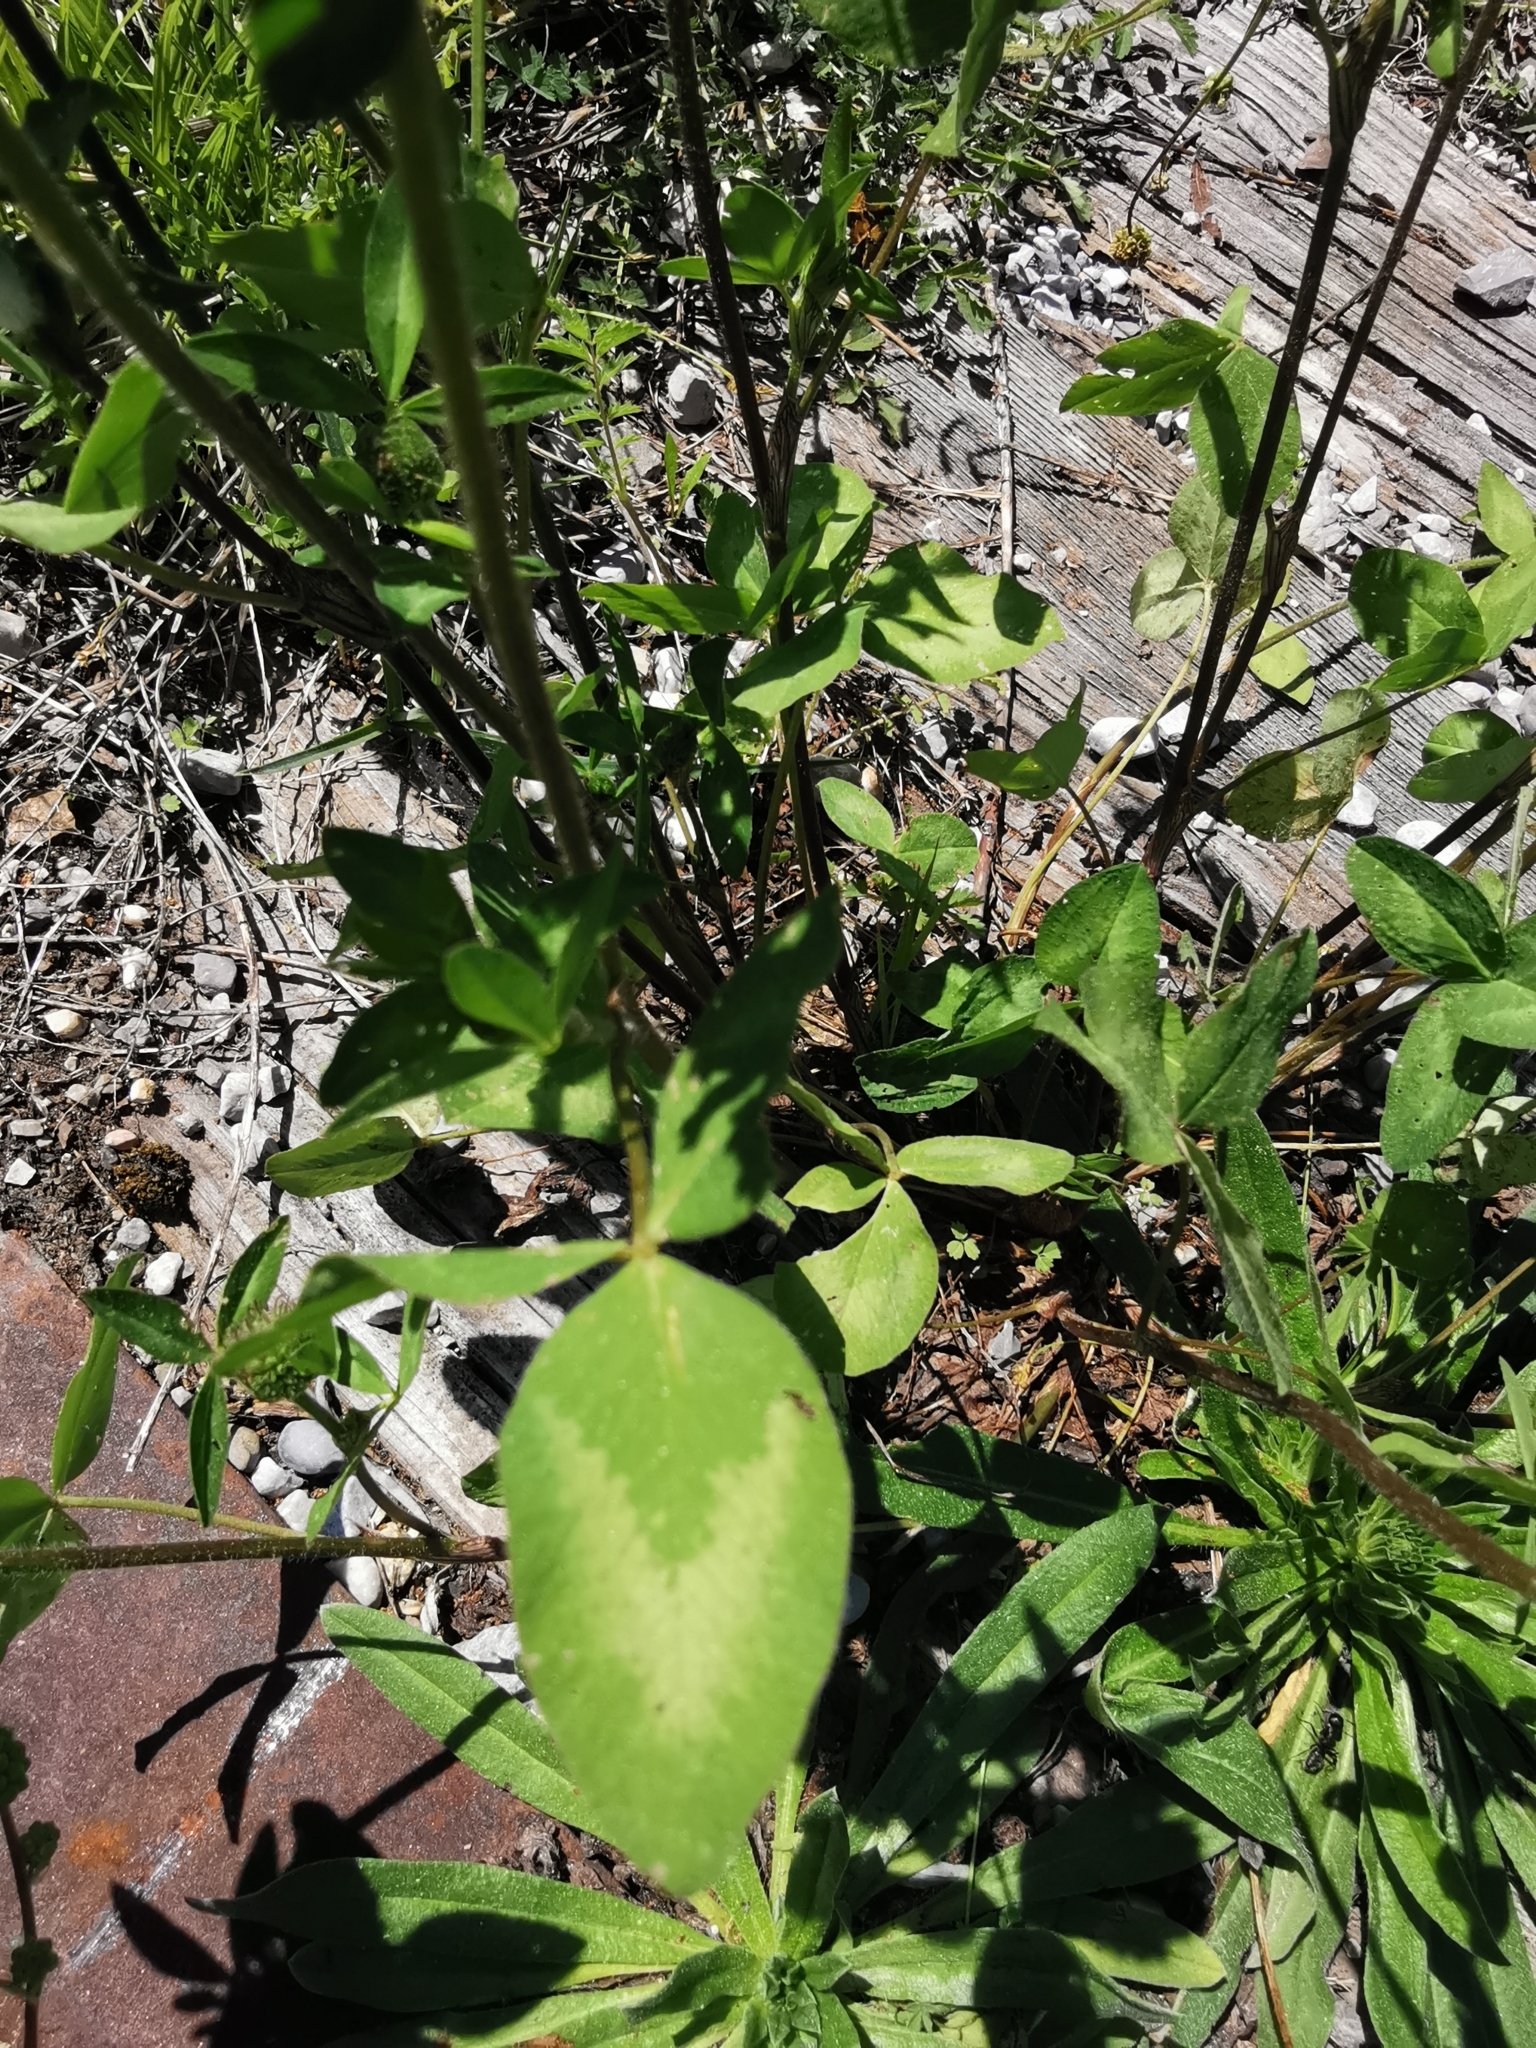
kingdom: Plantae
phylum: Tracheophyta
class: Magnoliopsida
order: Fabales
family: Fabaceae
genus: Trifolium
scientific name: Trifolium pratense
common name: Red clover
